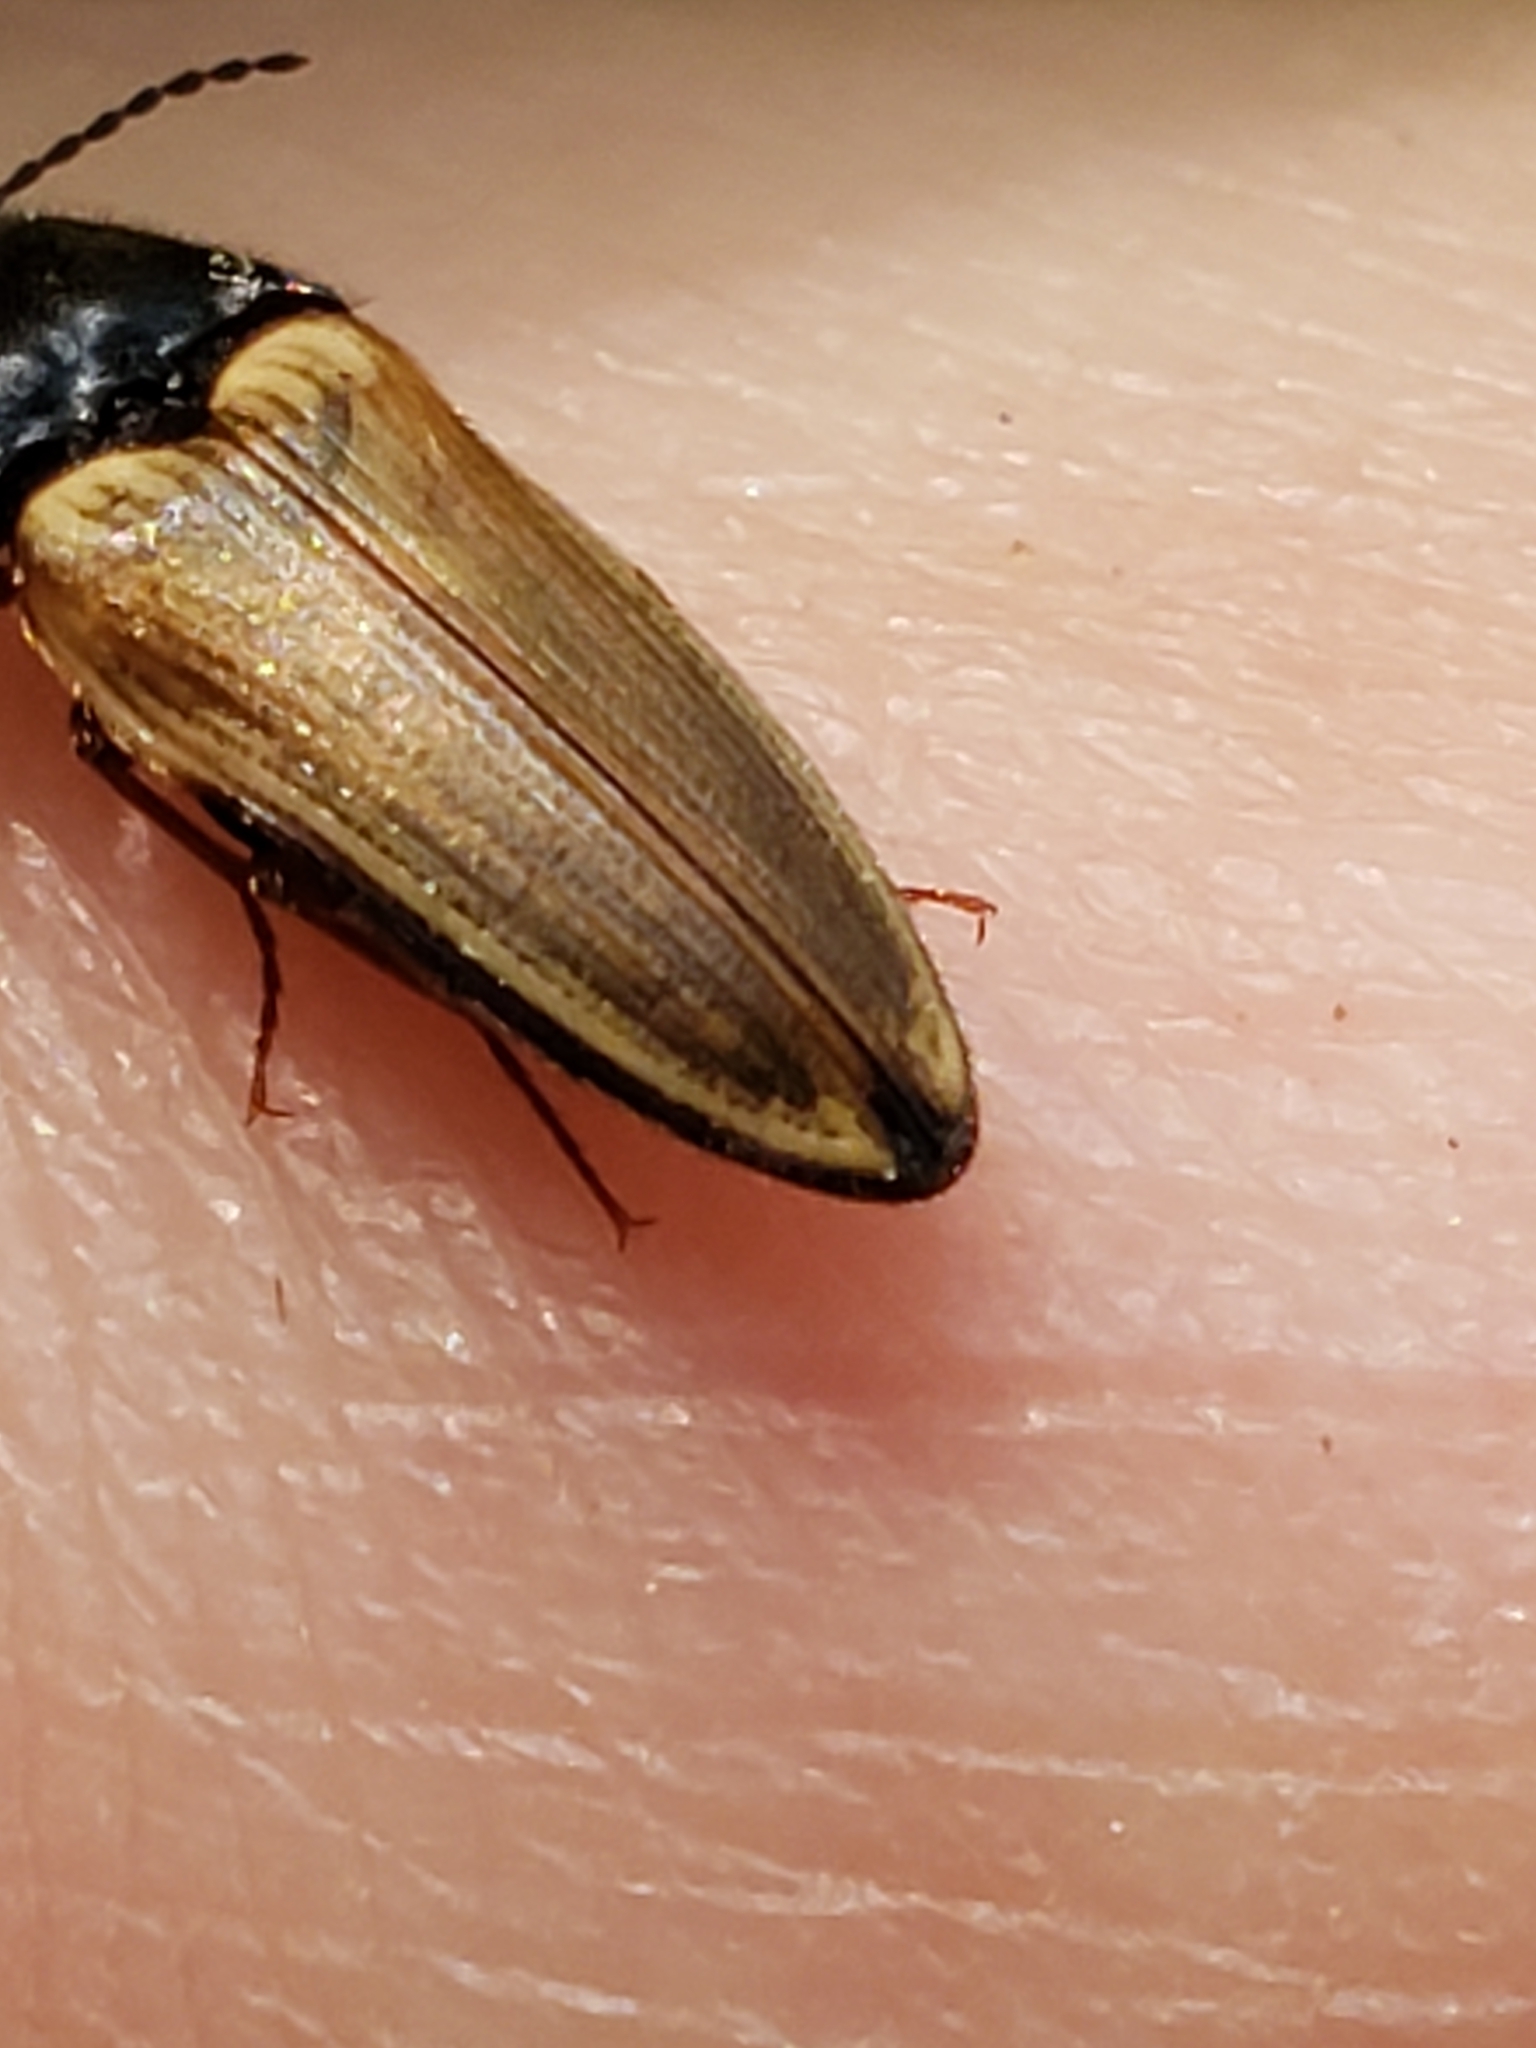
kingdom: Animalia
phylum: Arthropoda
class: Insecta
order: Coleoptera
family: Elateridae
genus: Ampedus
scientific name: Ampedus nigricollis
